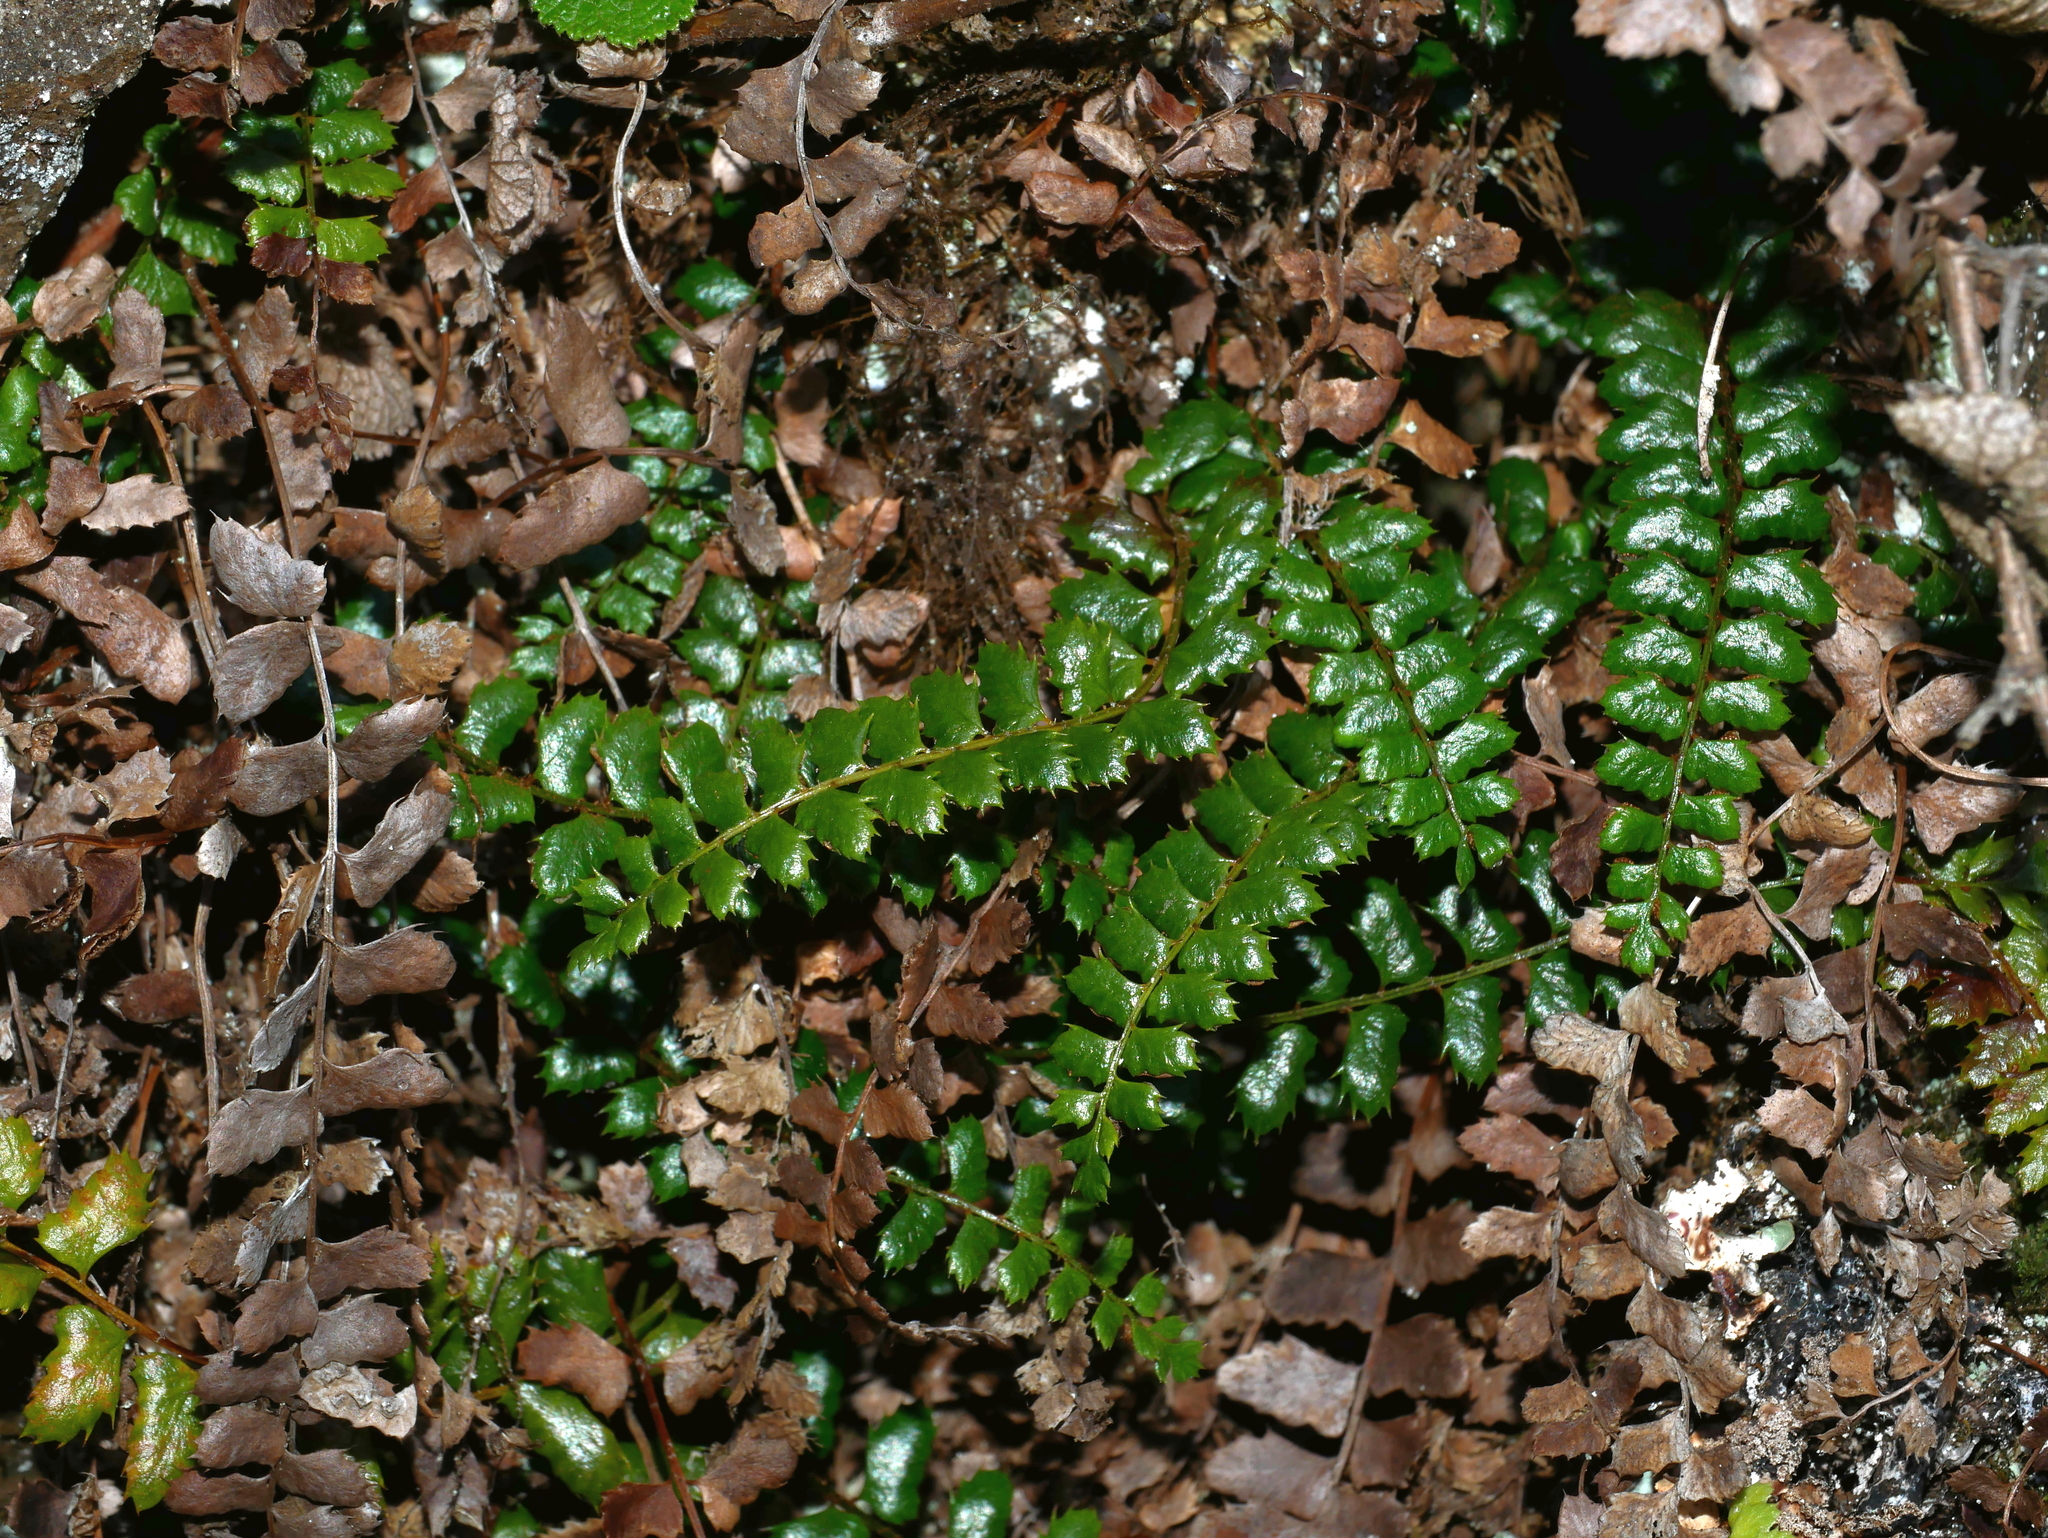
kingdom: Plantae
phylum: Tracheophyta
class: Polypodiopsida
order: Polypodiales
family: Dryopteridaceae
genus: Polystichum
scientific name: Polystichum atkinsonii
